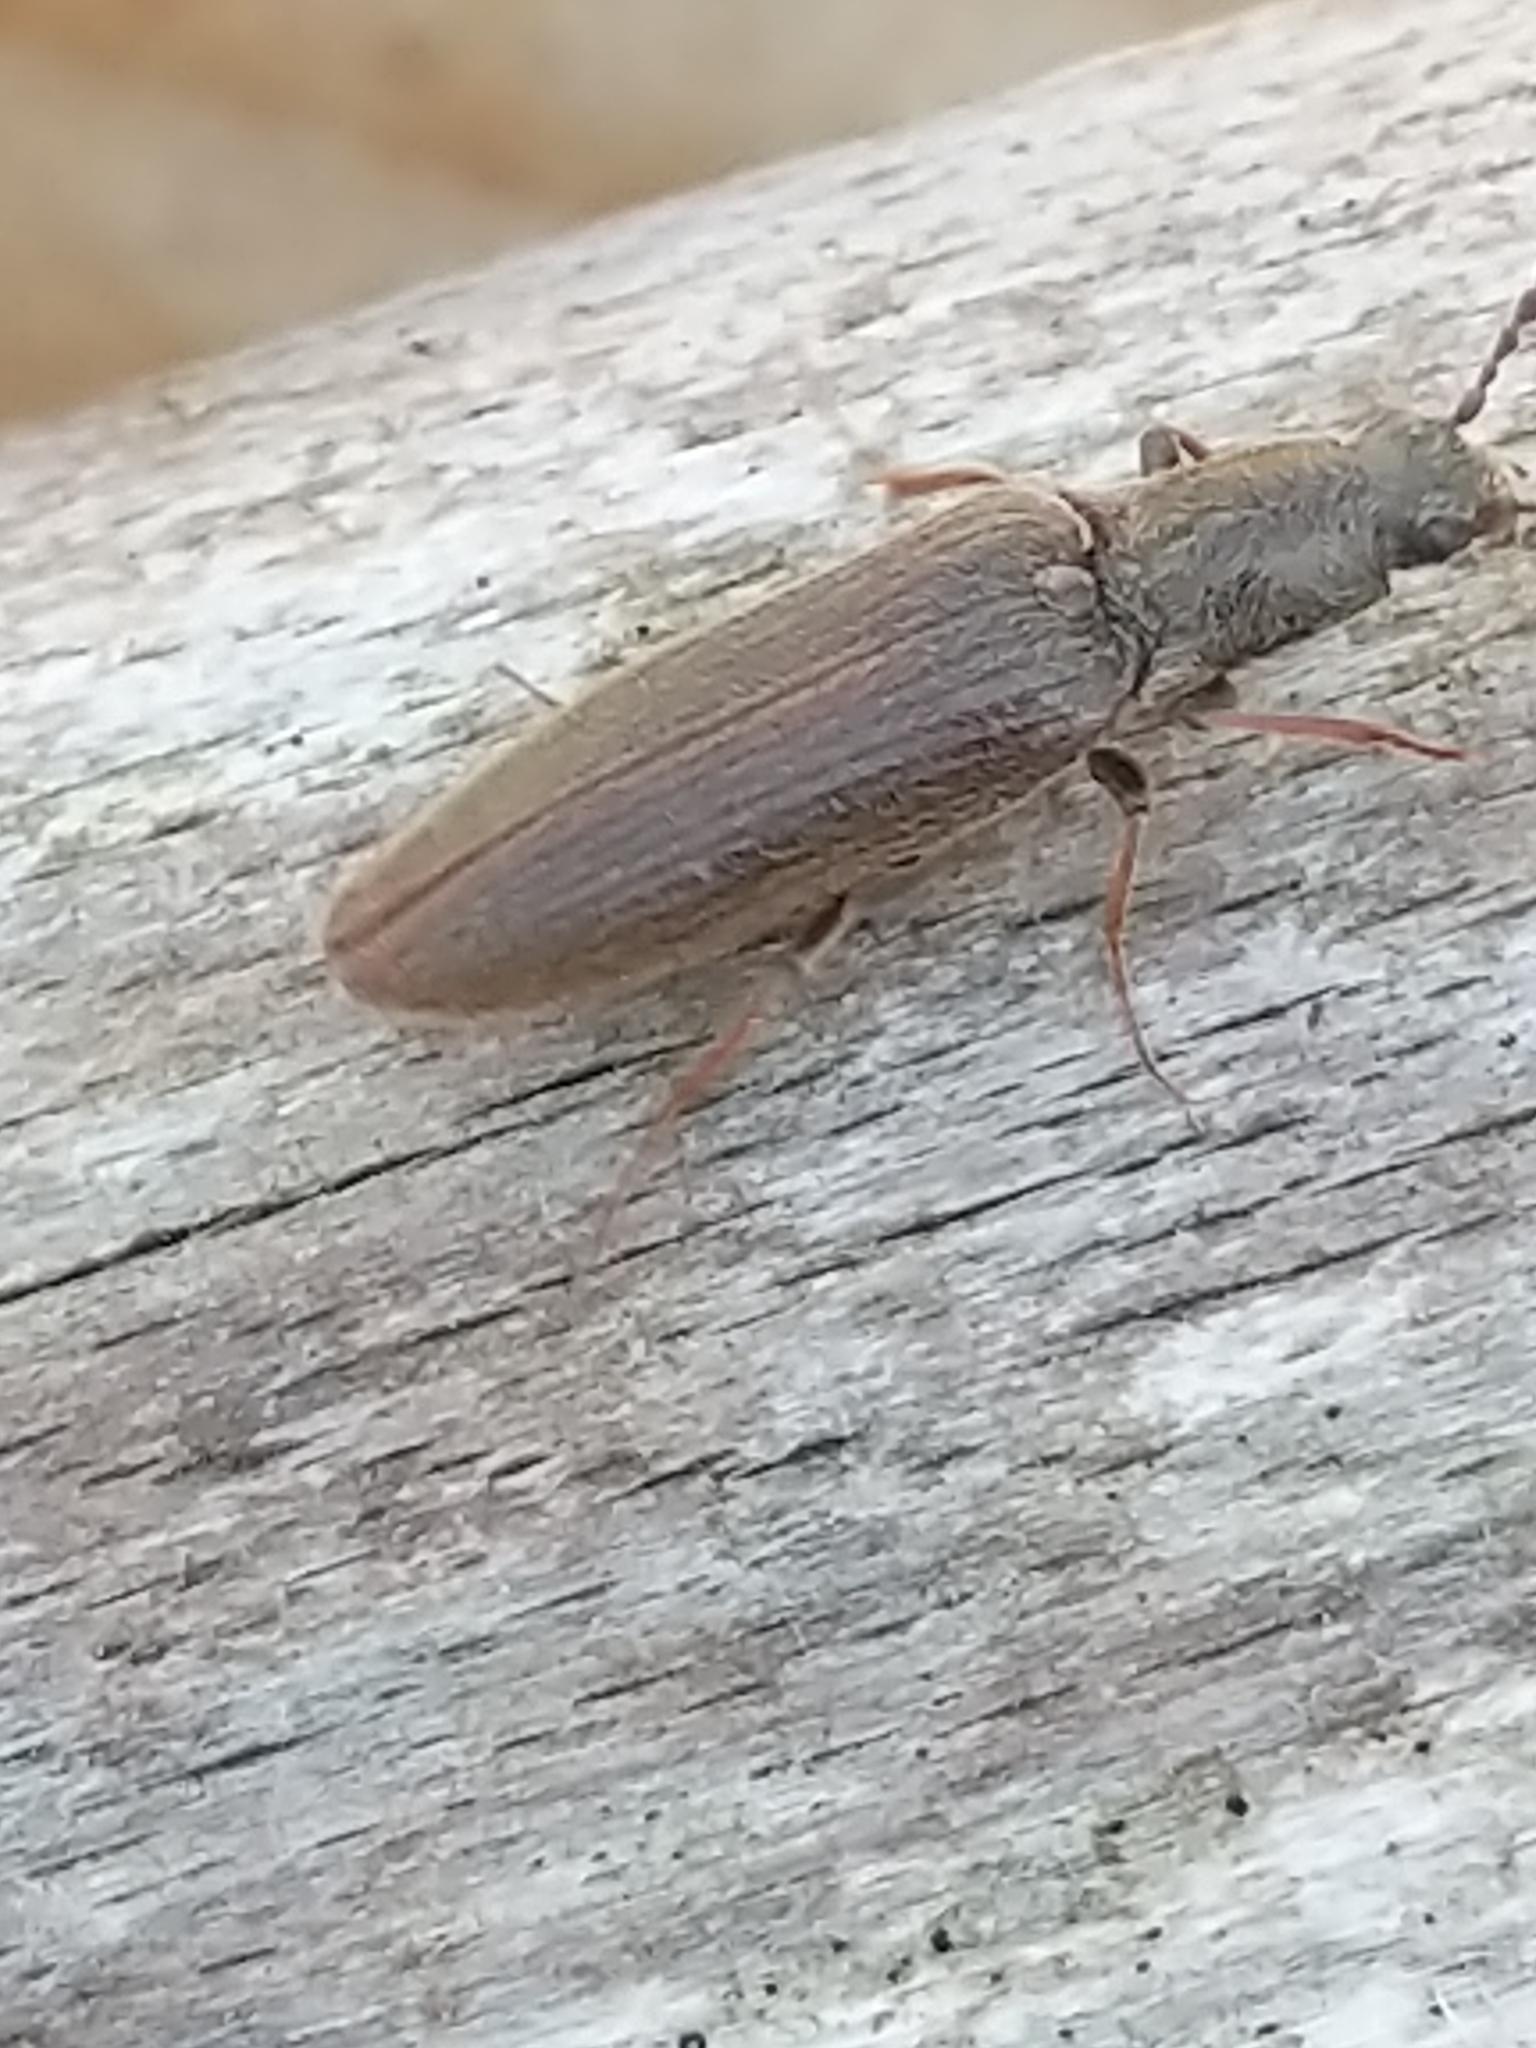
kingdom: Animalia
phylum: Arthropoda
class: Insecta
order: Coleoptera
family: Elateridae
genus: Sylvanelater
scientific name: Sylvanelater cylindriformis
